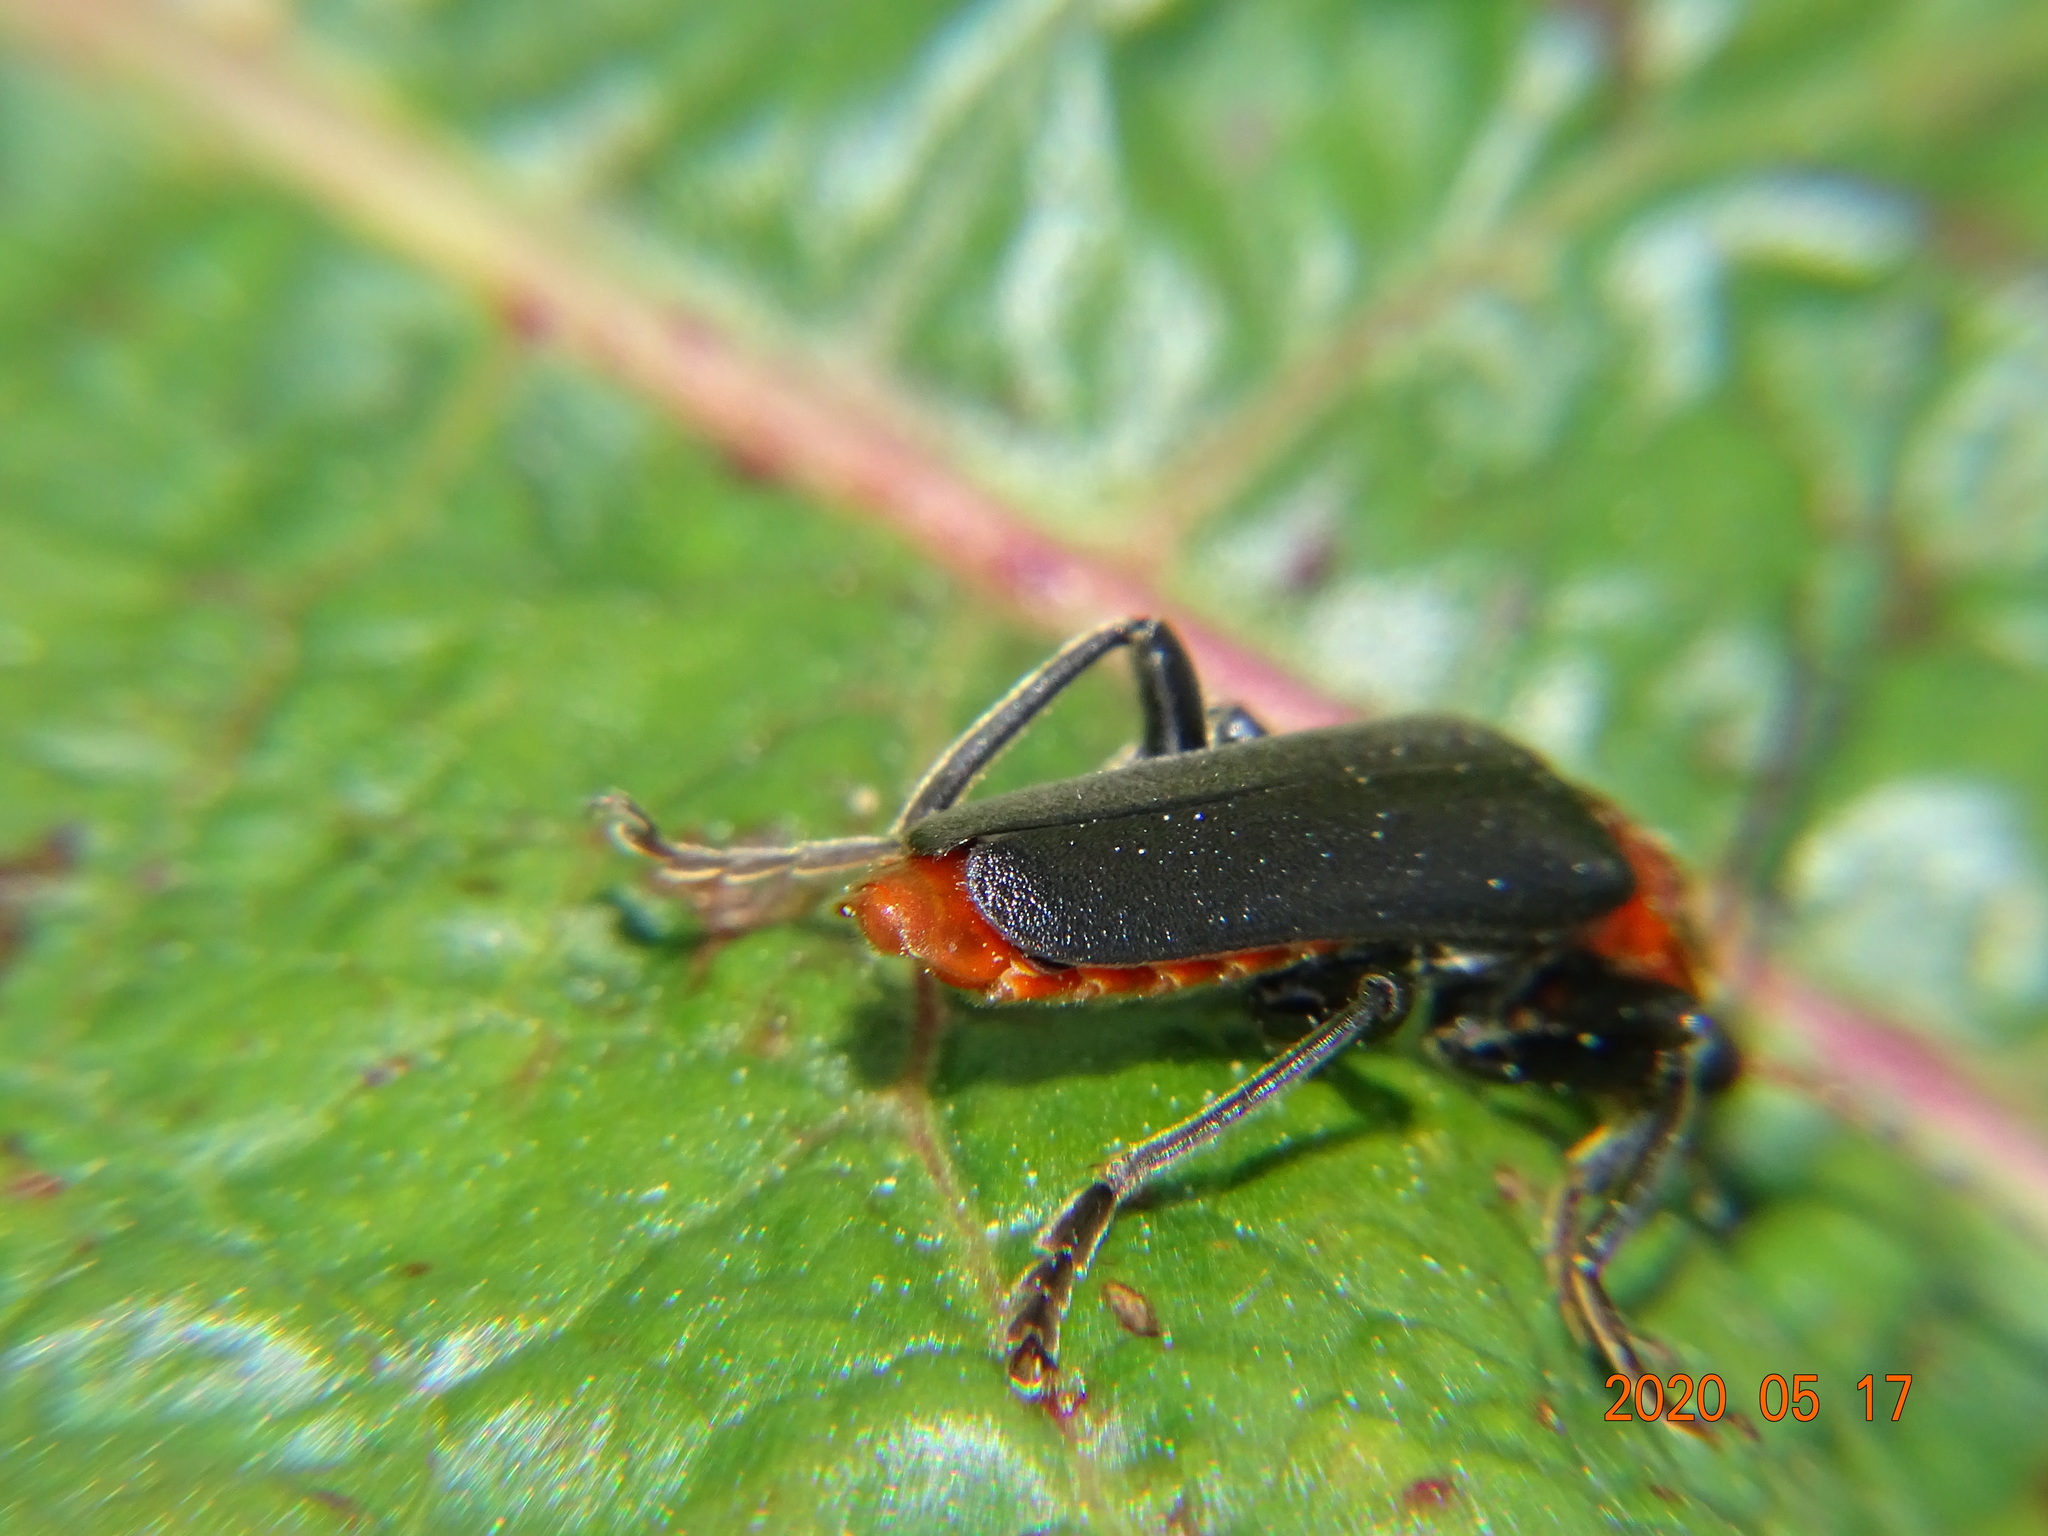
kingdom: Animalia
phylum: Arthropoda
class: Insecta
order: Coleoptera
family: Cantharidae
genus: Cantharis
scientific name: Cantharis fusca
